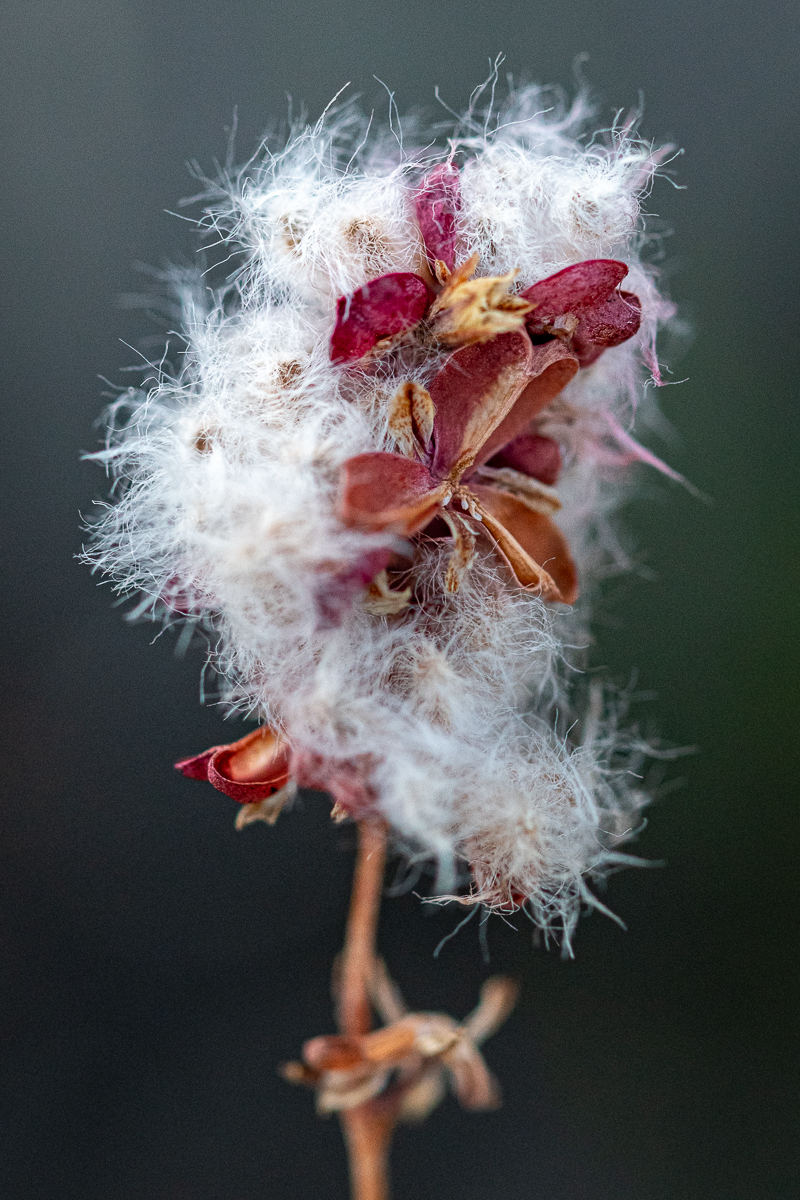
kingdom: Plantae
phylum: Tracheophyta
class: Liliopsida
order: Asparagales
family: Asparagaceae
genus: Eriospermum
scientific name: Eriospermum dielsianum
